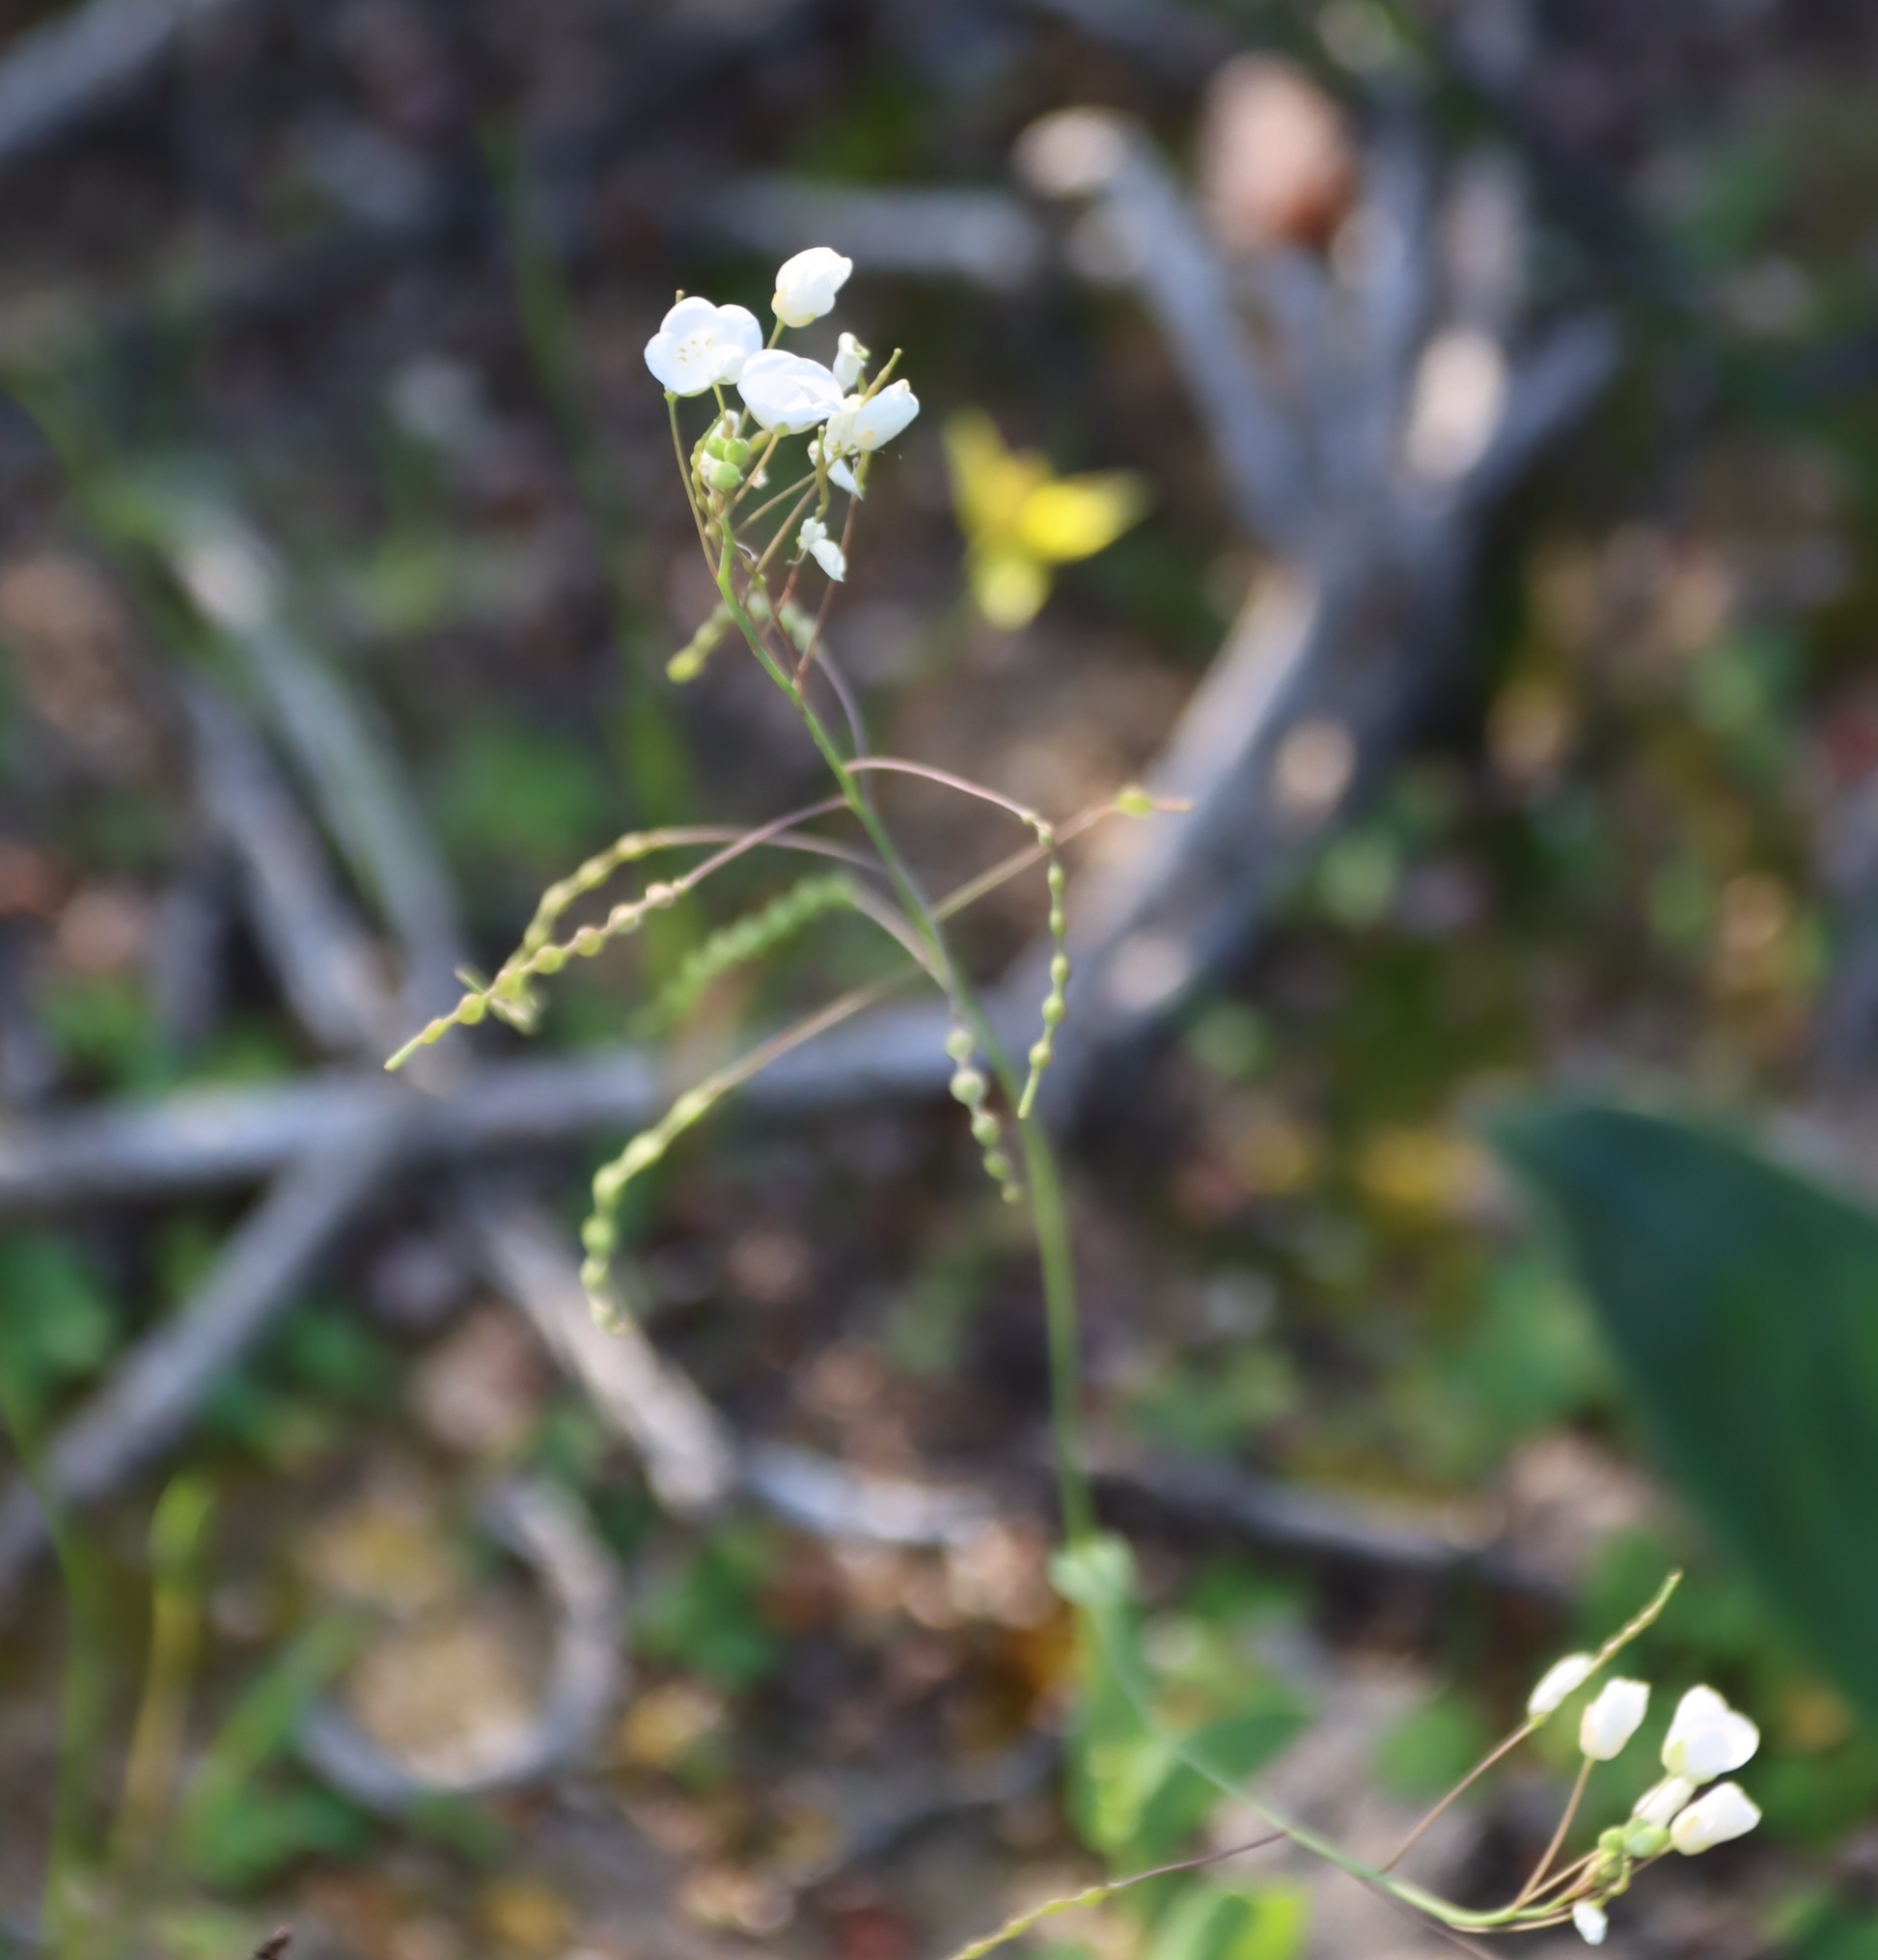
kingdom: Plantae
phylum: Tracheophyta
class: Magnoliopsida
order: Brassicales
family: Brassicaceae
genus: Heliophila
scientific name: Heliophila amplexicaulis
